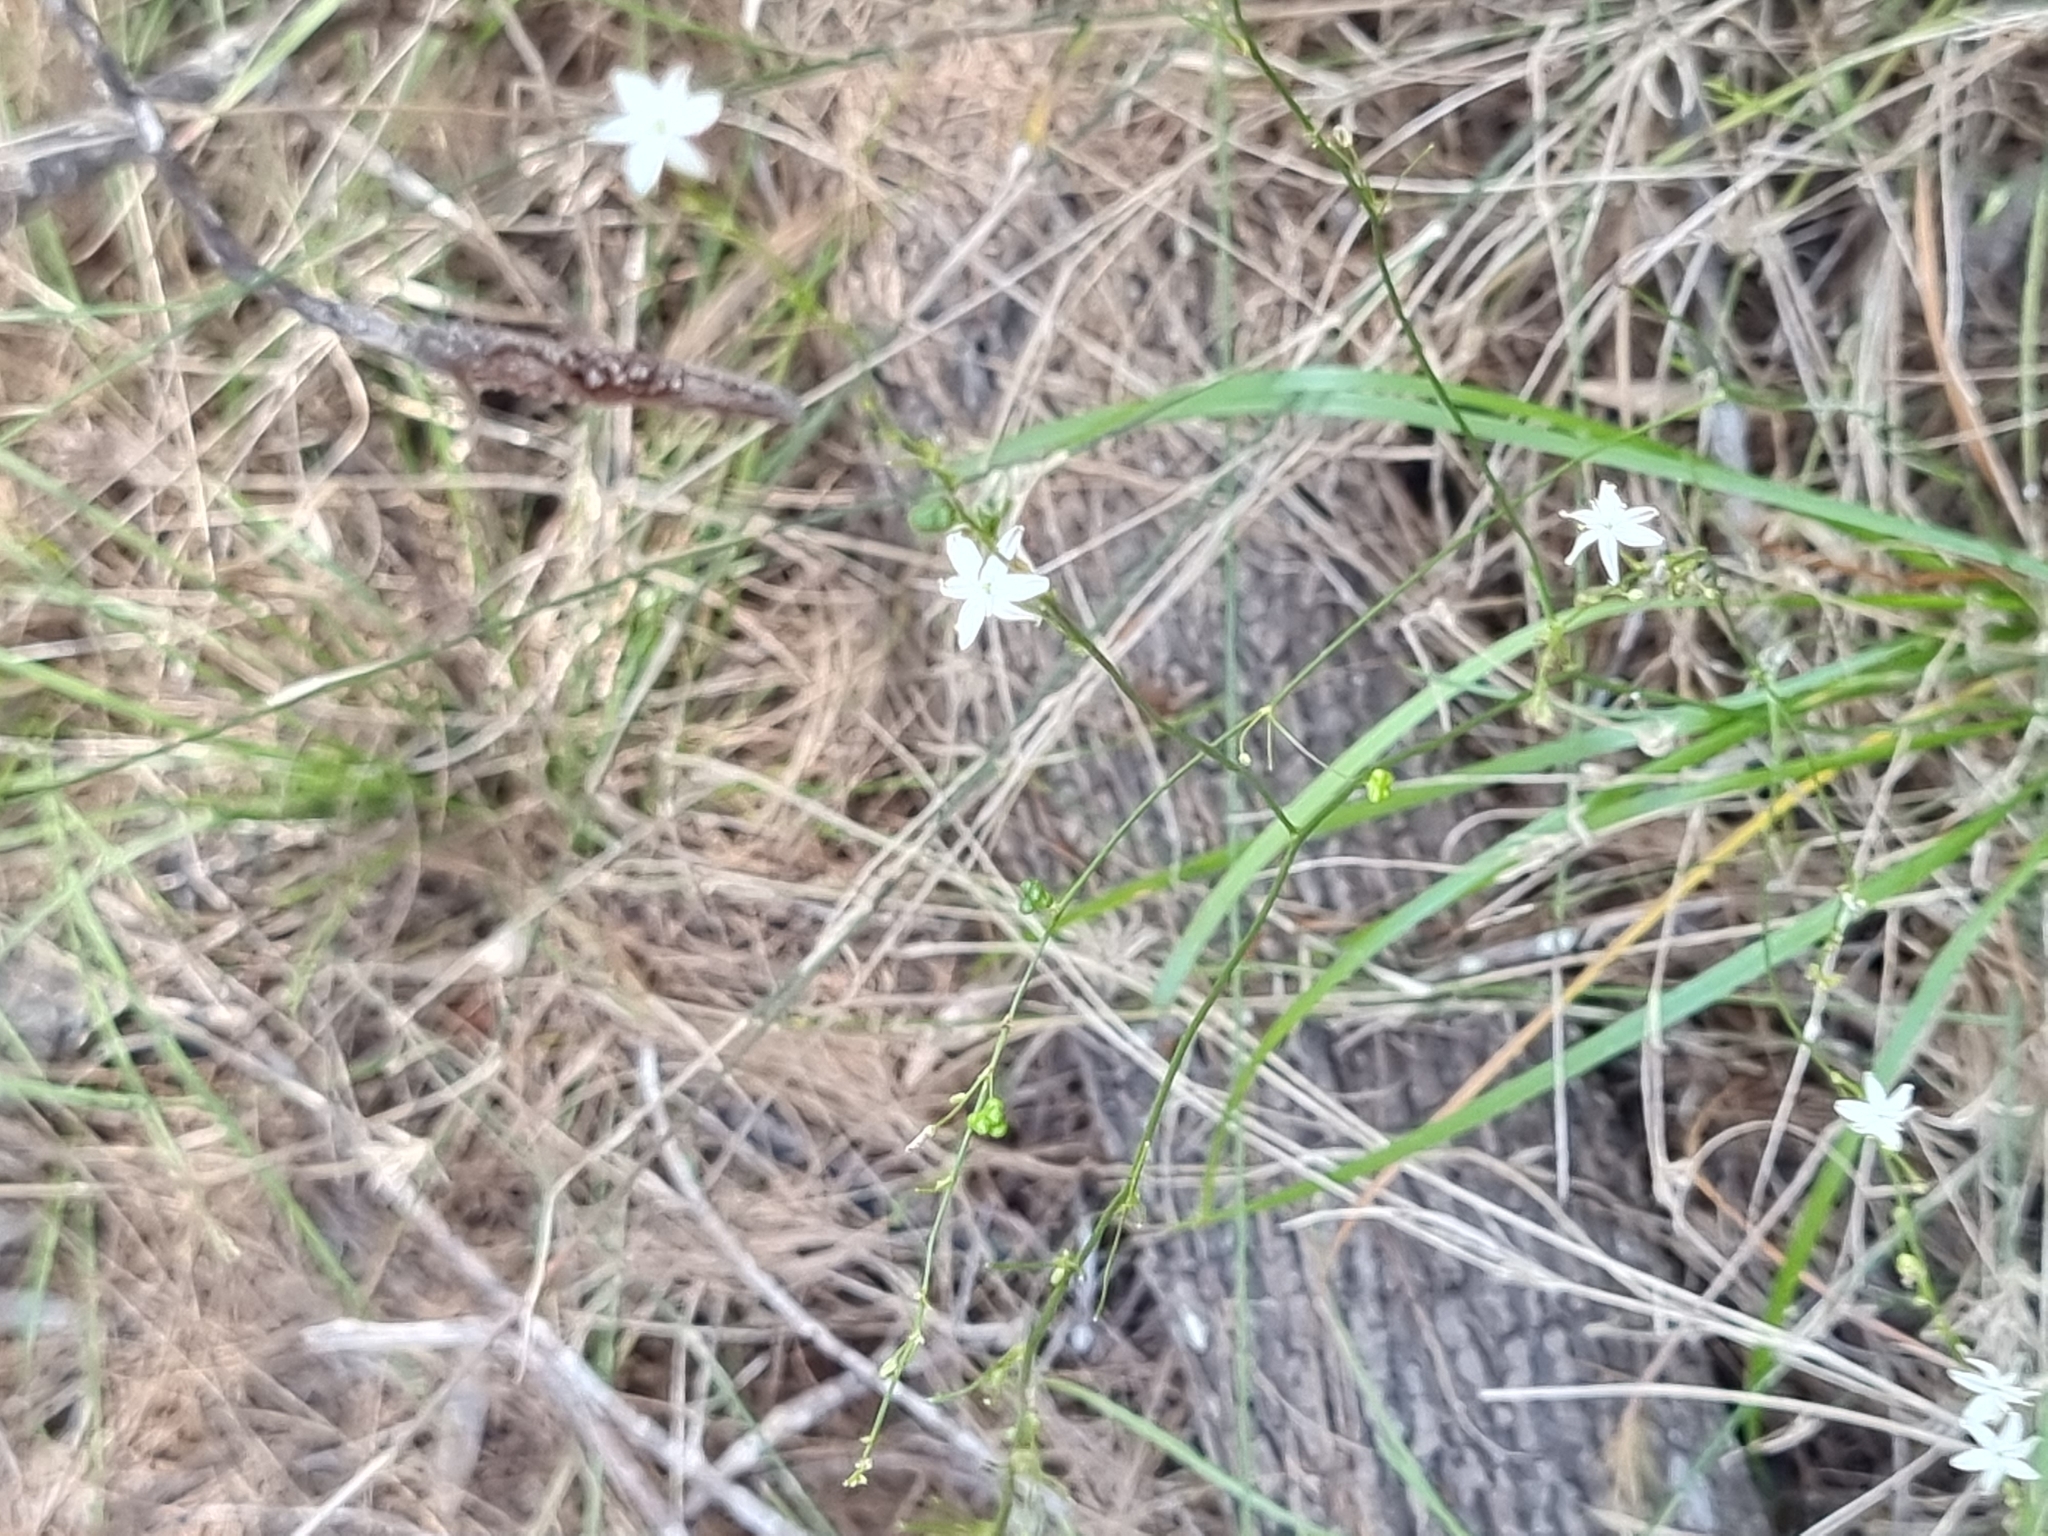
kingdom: Plantae
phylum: Tracheophyta
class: Liliopsida
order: Asparagales
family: Asphodelaceae
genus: Caesia
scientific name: Caesia parviflora
